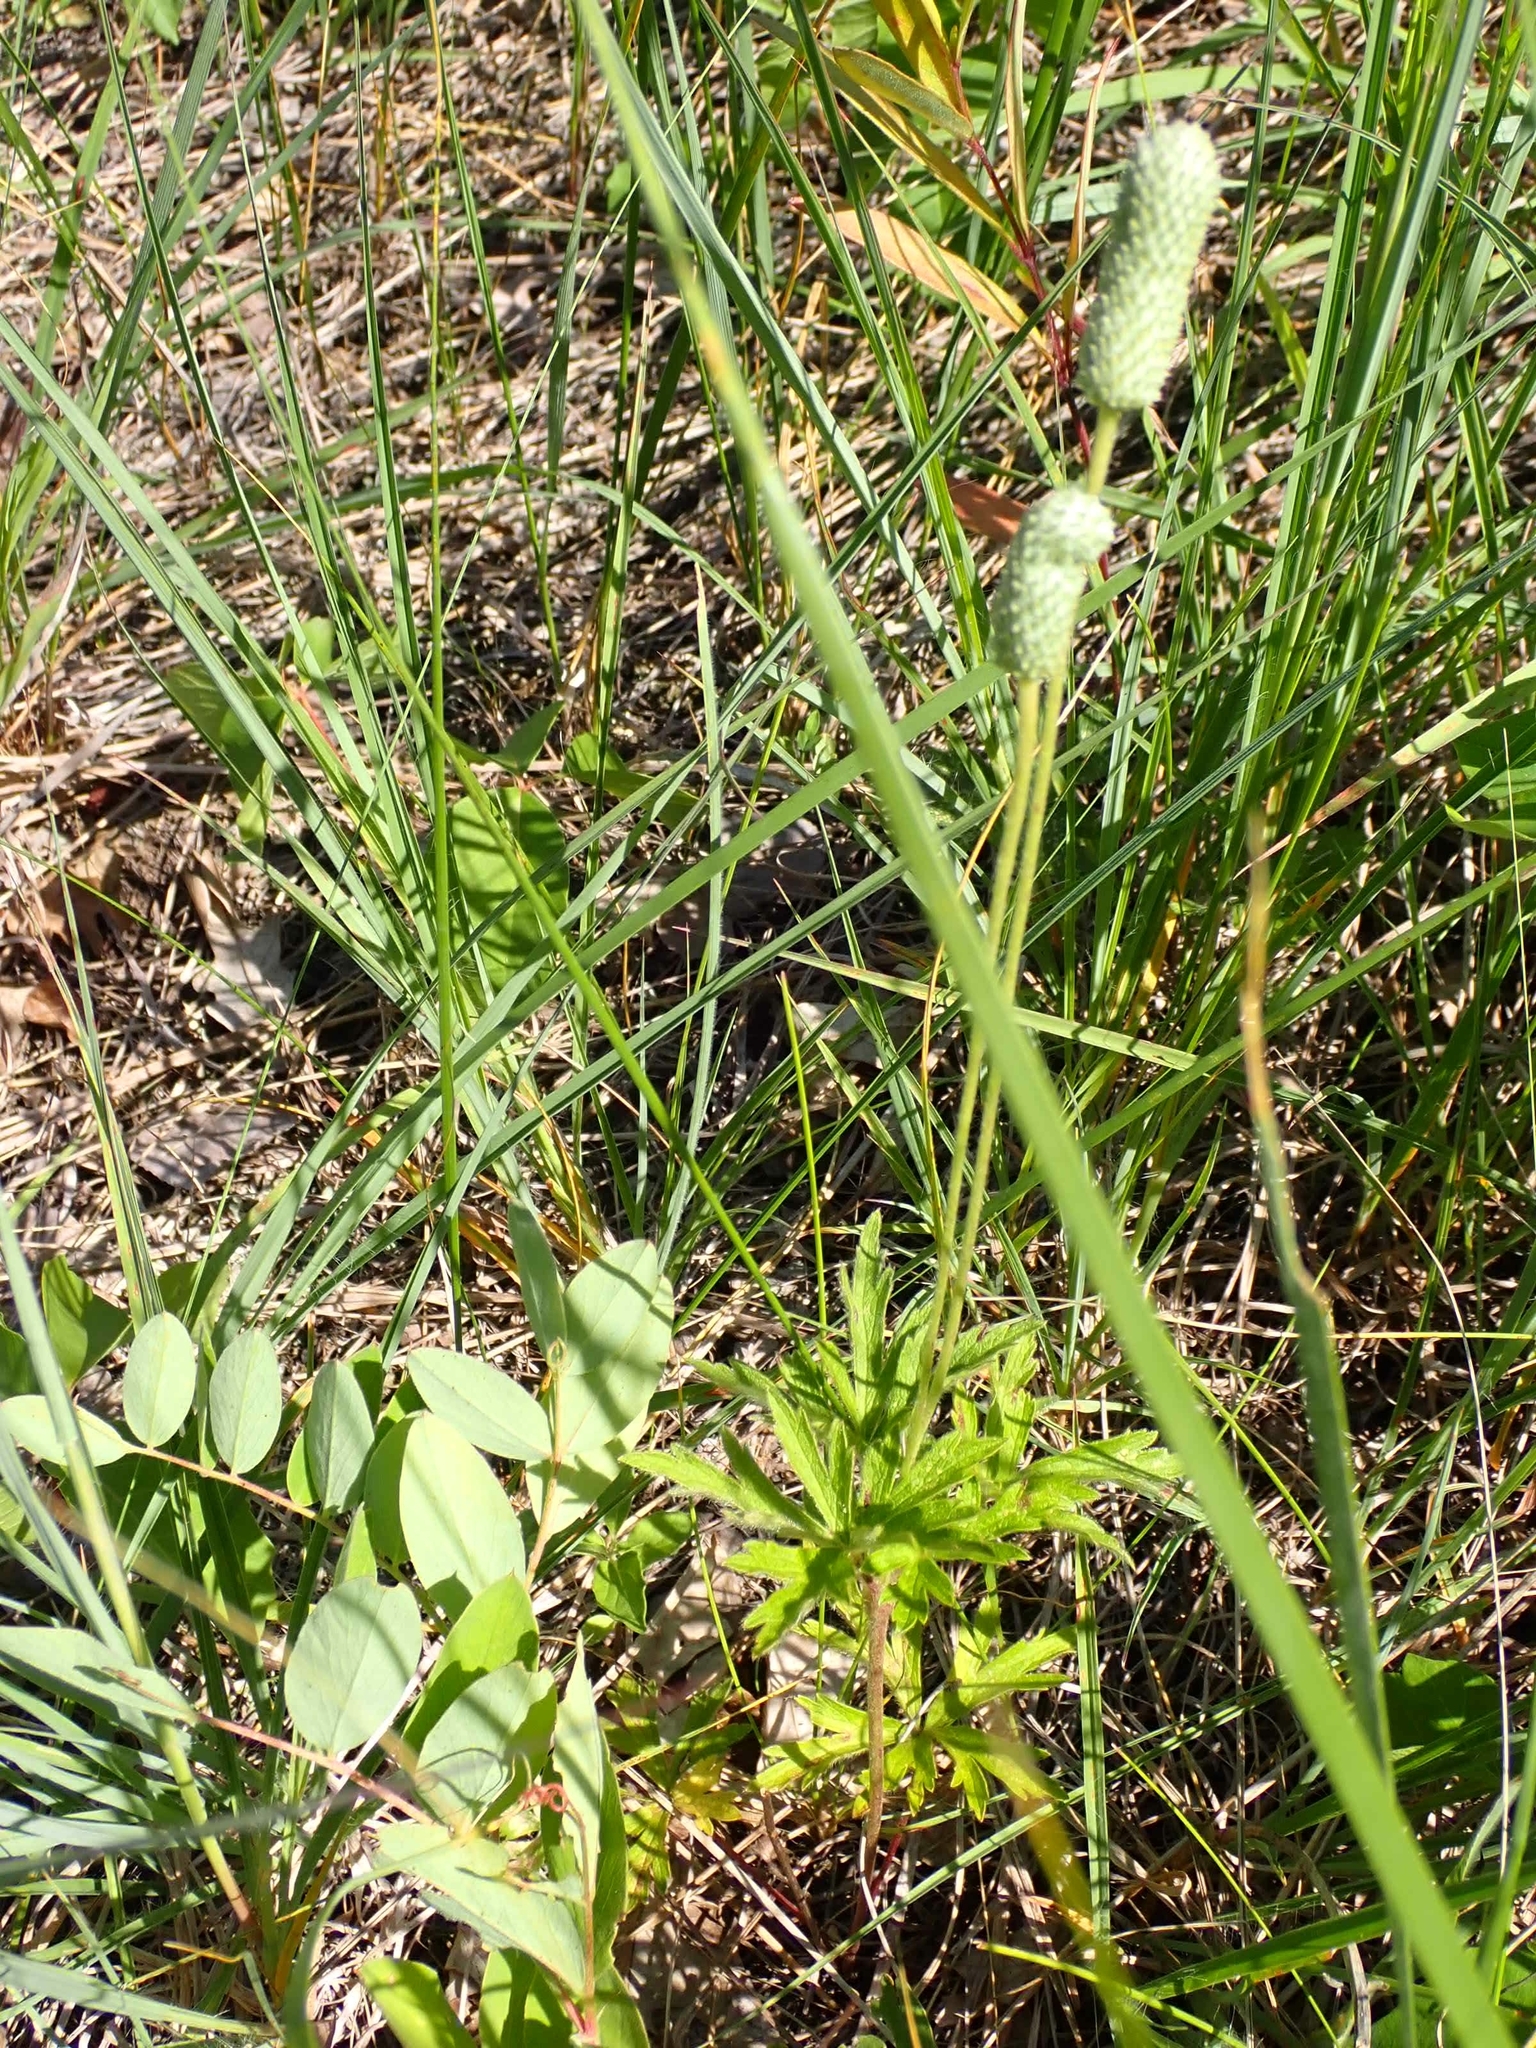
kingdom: Plantae
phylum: Tracheophyta
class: Magnoliopsida
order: Ranunculales
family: Ranunculaceae
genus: Anemone
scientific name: Anemone cylindrica
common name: Candle anemone
